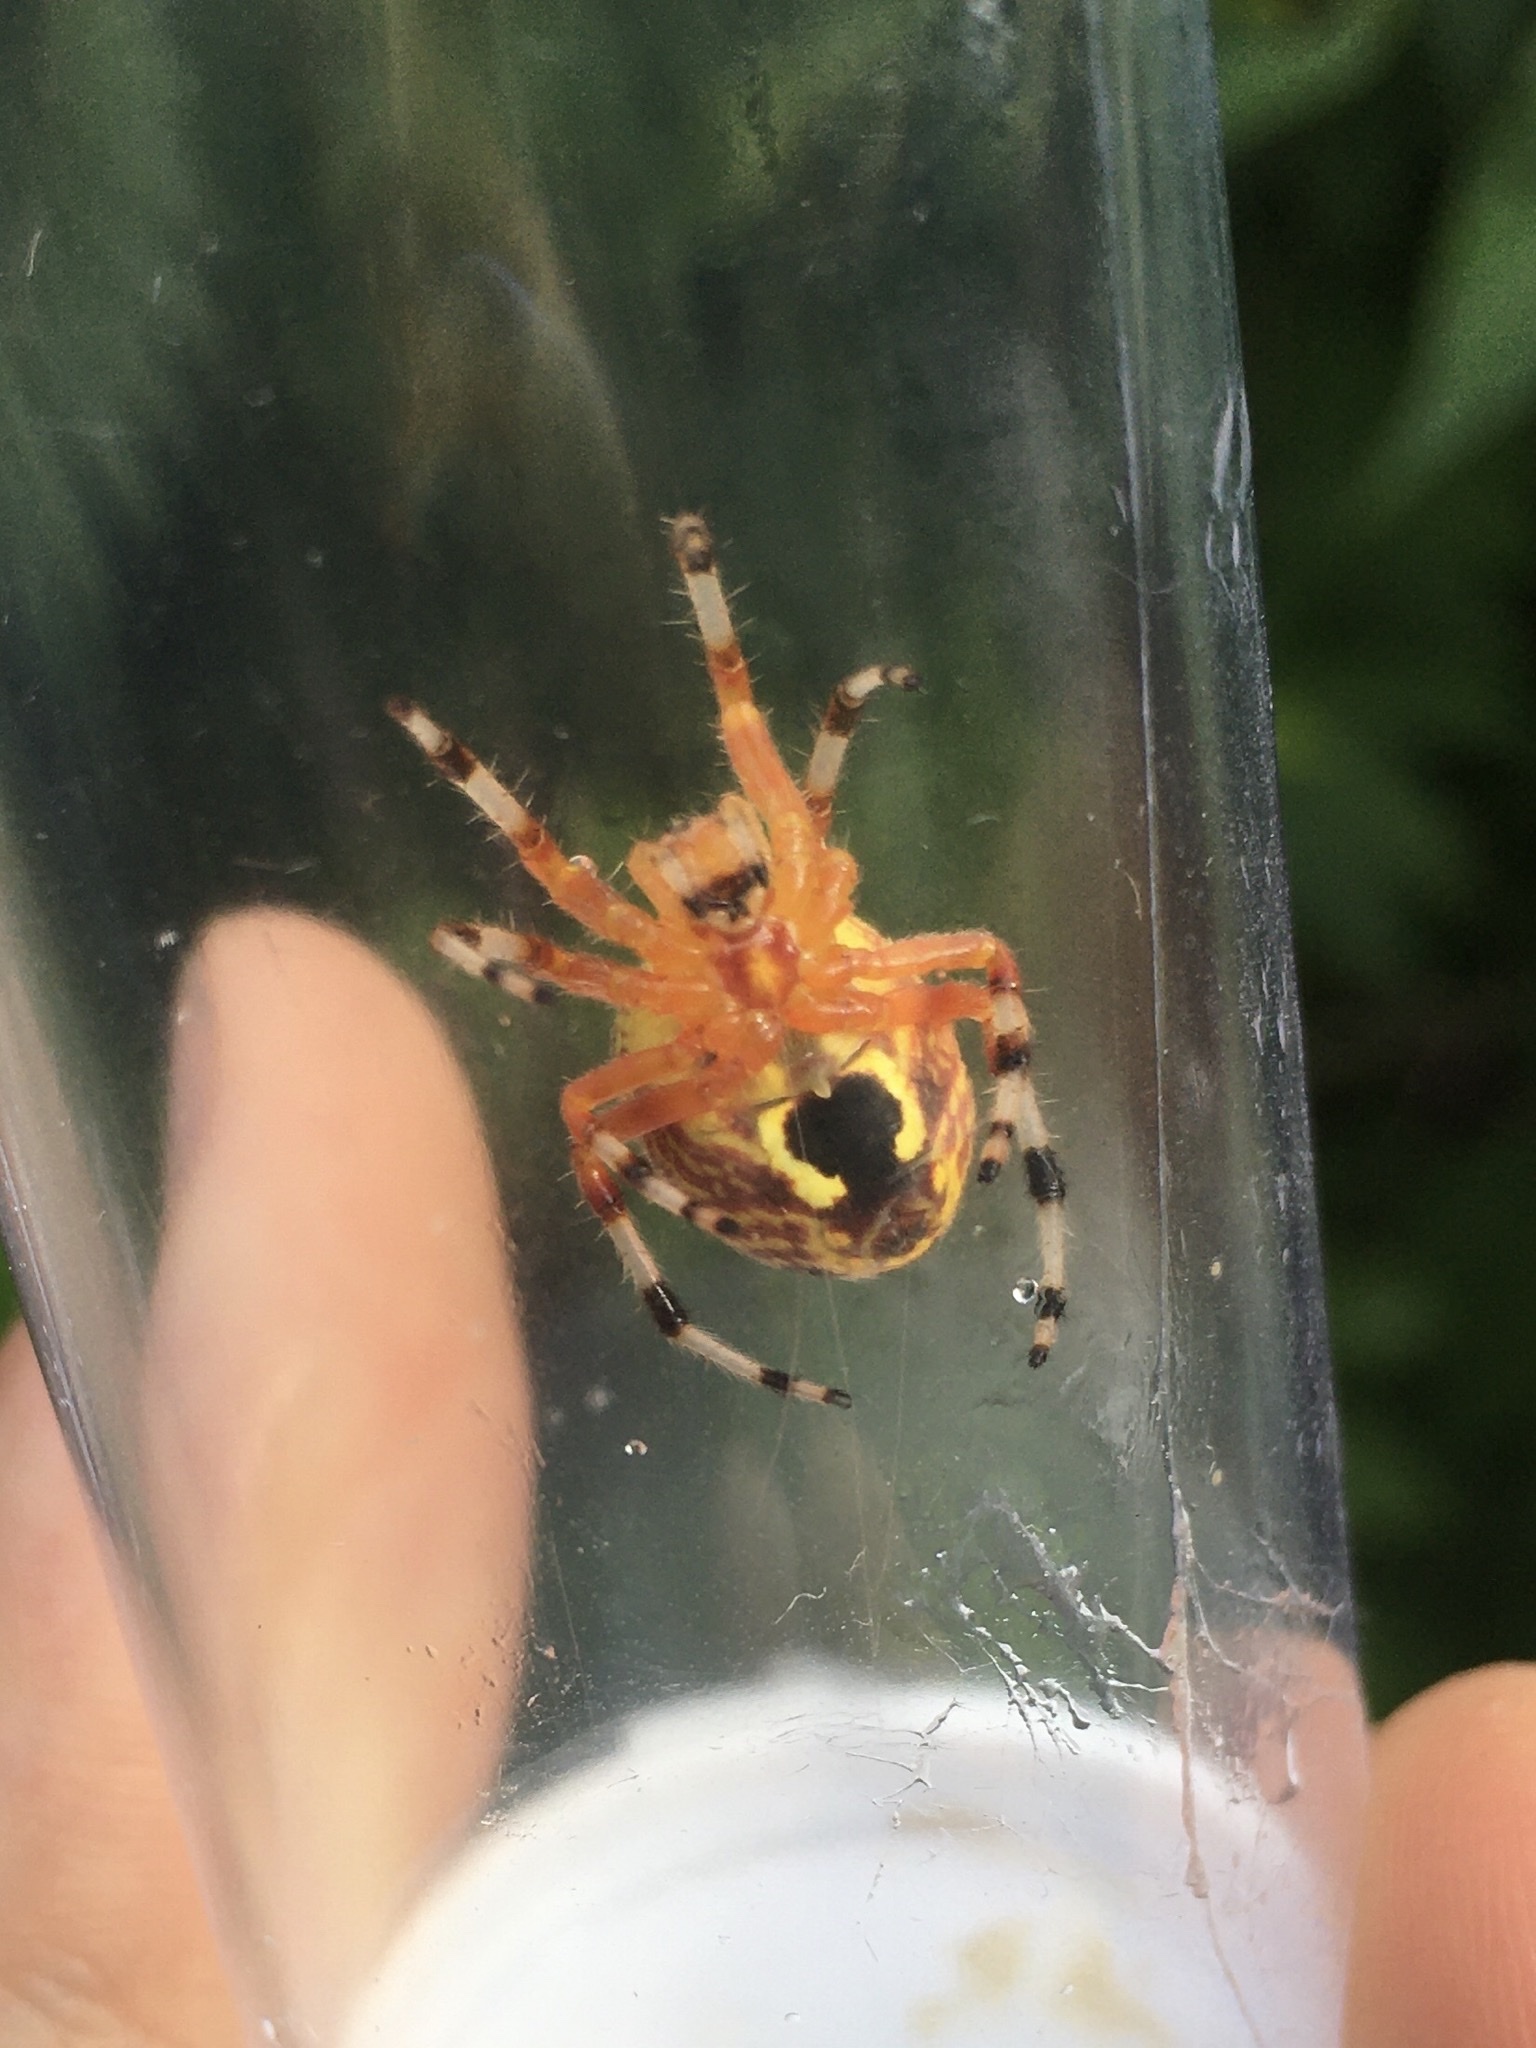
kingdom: Animalia
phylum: Arthropoda
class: Arachnida
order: Araneae
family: Araneidae
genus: Araneus
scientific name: Araneus marmoreus
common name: Marbled orbweaver
